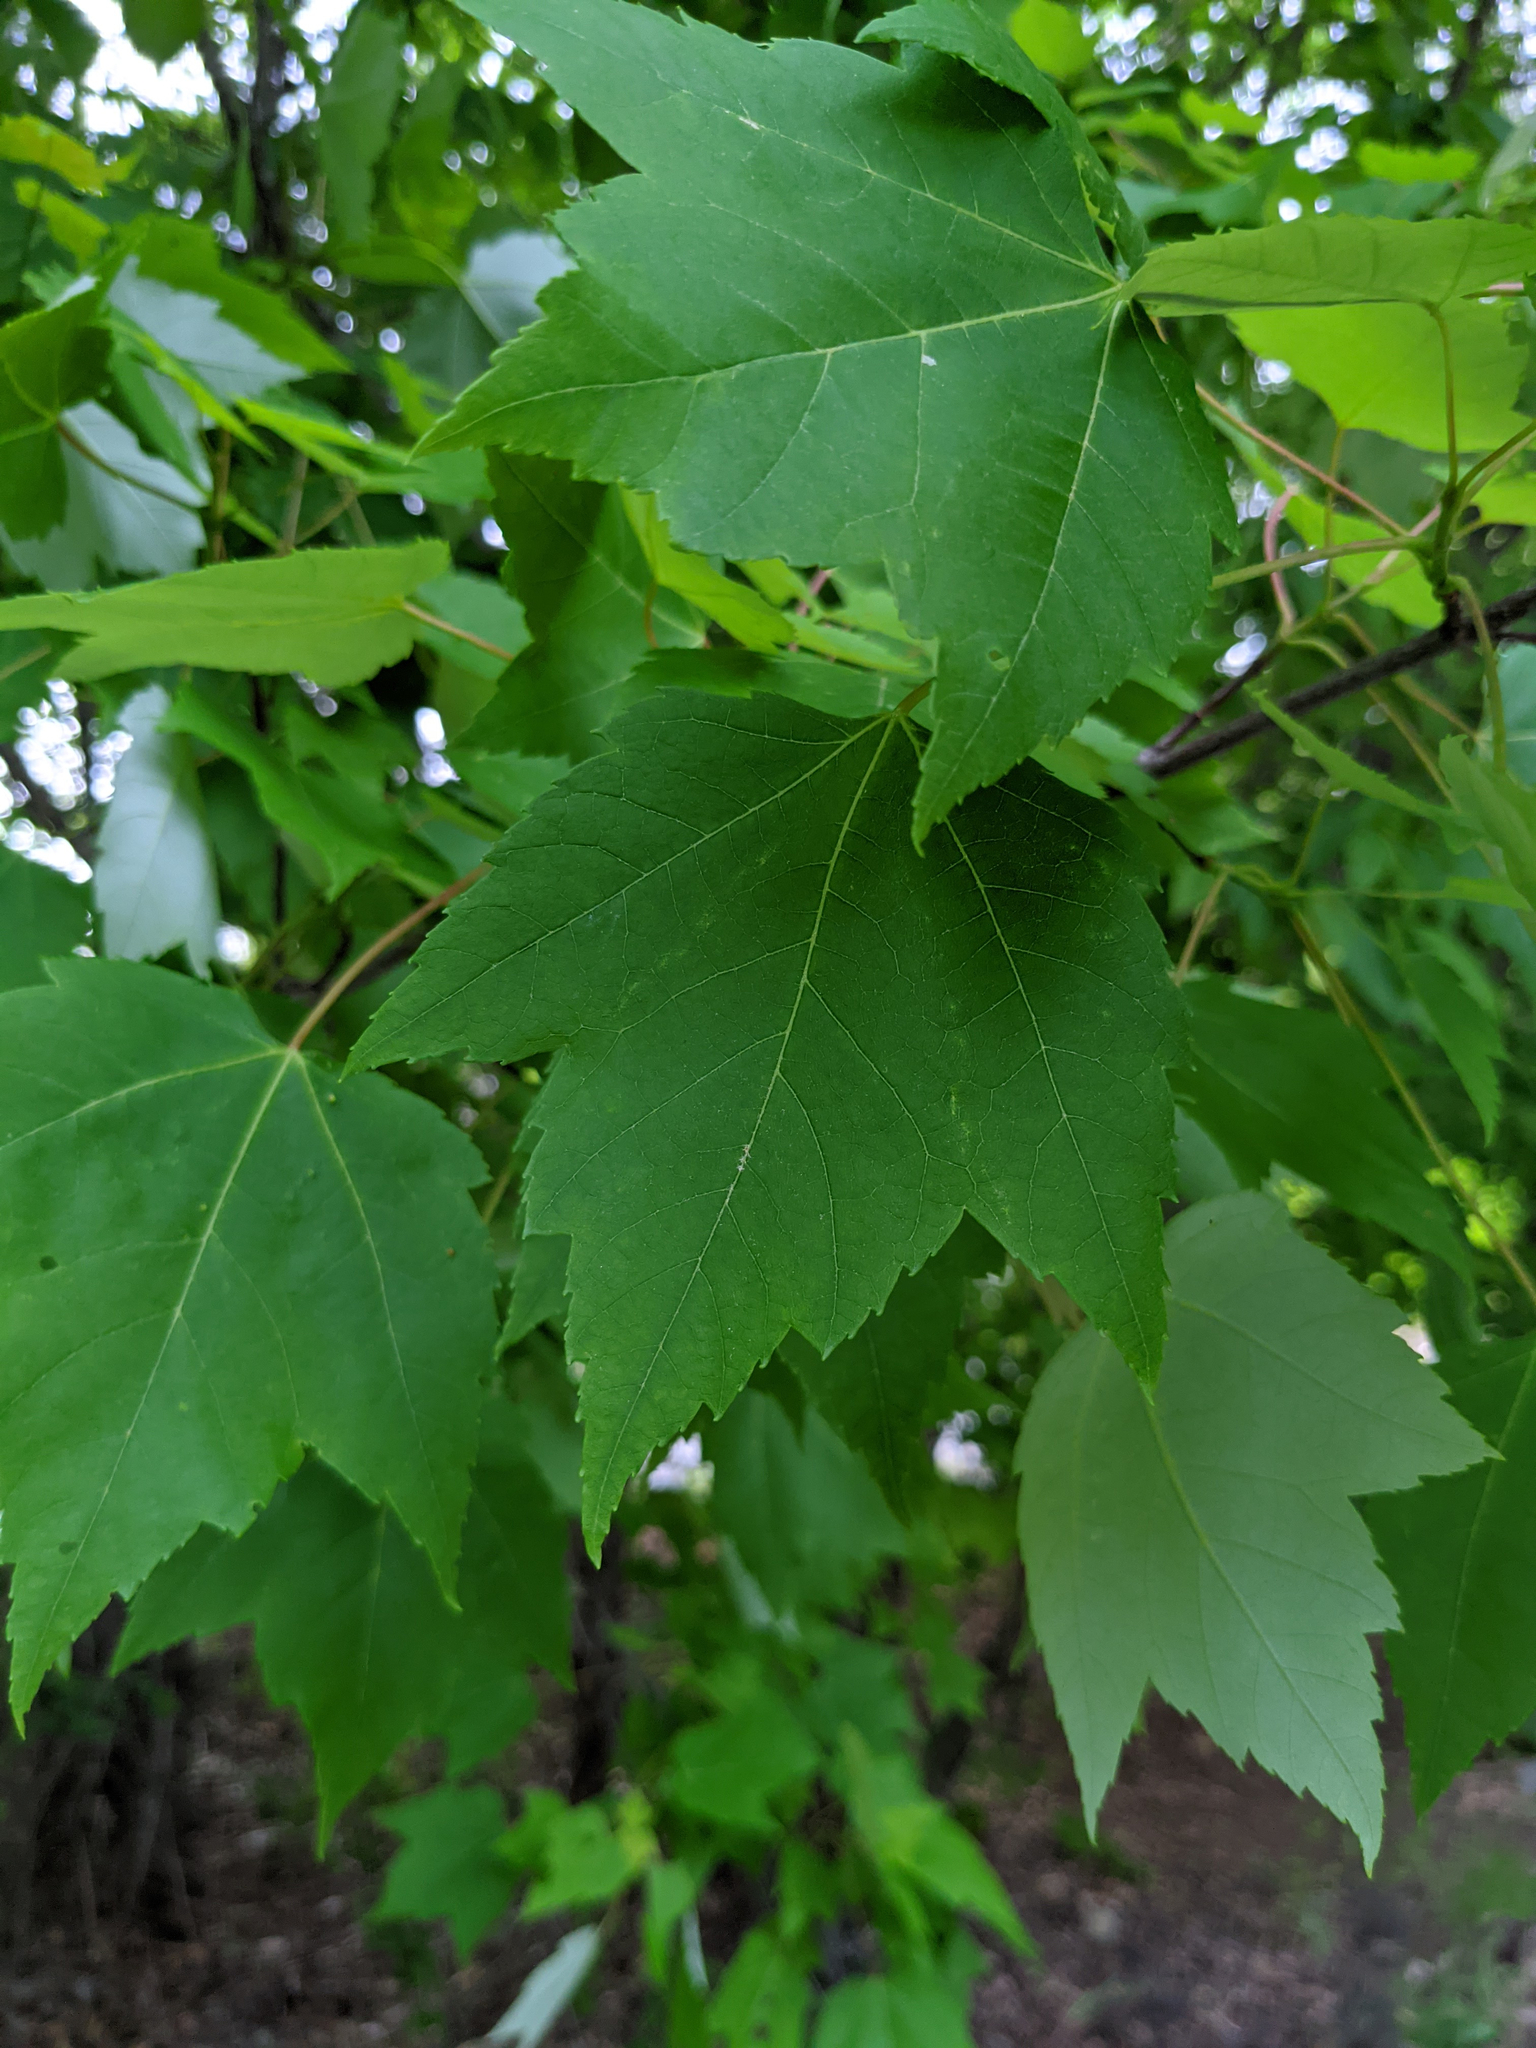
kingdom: Plantae
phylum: Tracheophyta
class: Magnoliopsida
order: Sapindales
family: Sapindaceae
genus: Acer
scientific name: Acer rubrum
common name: Red maple
